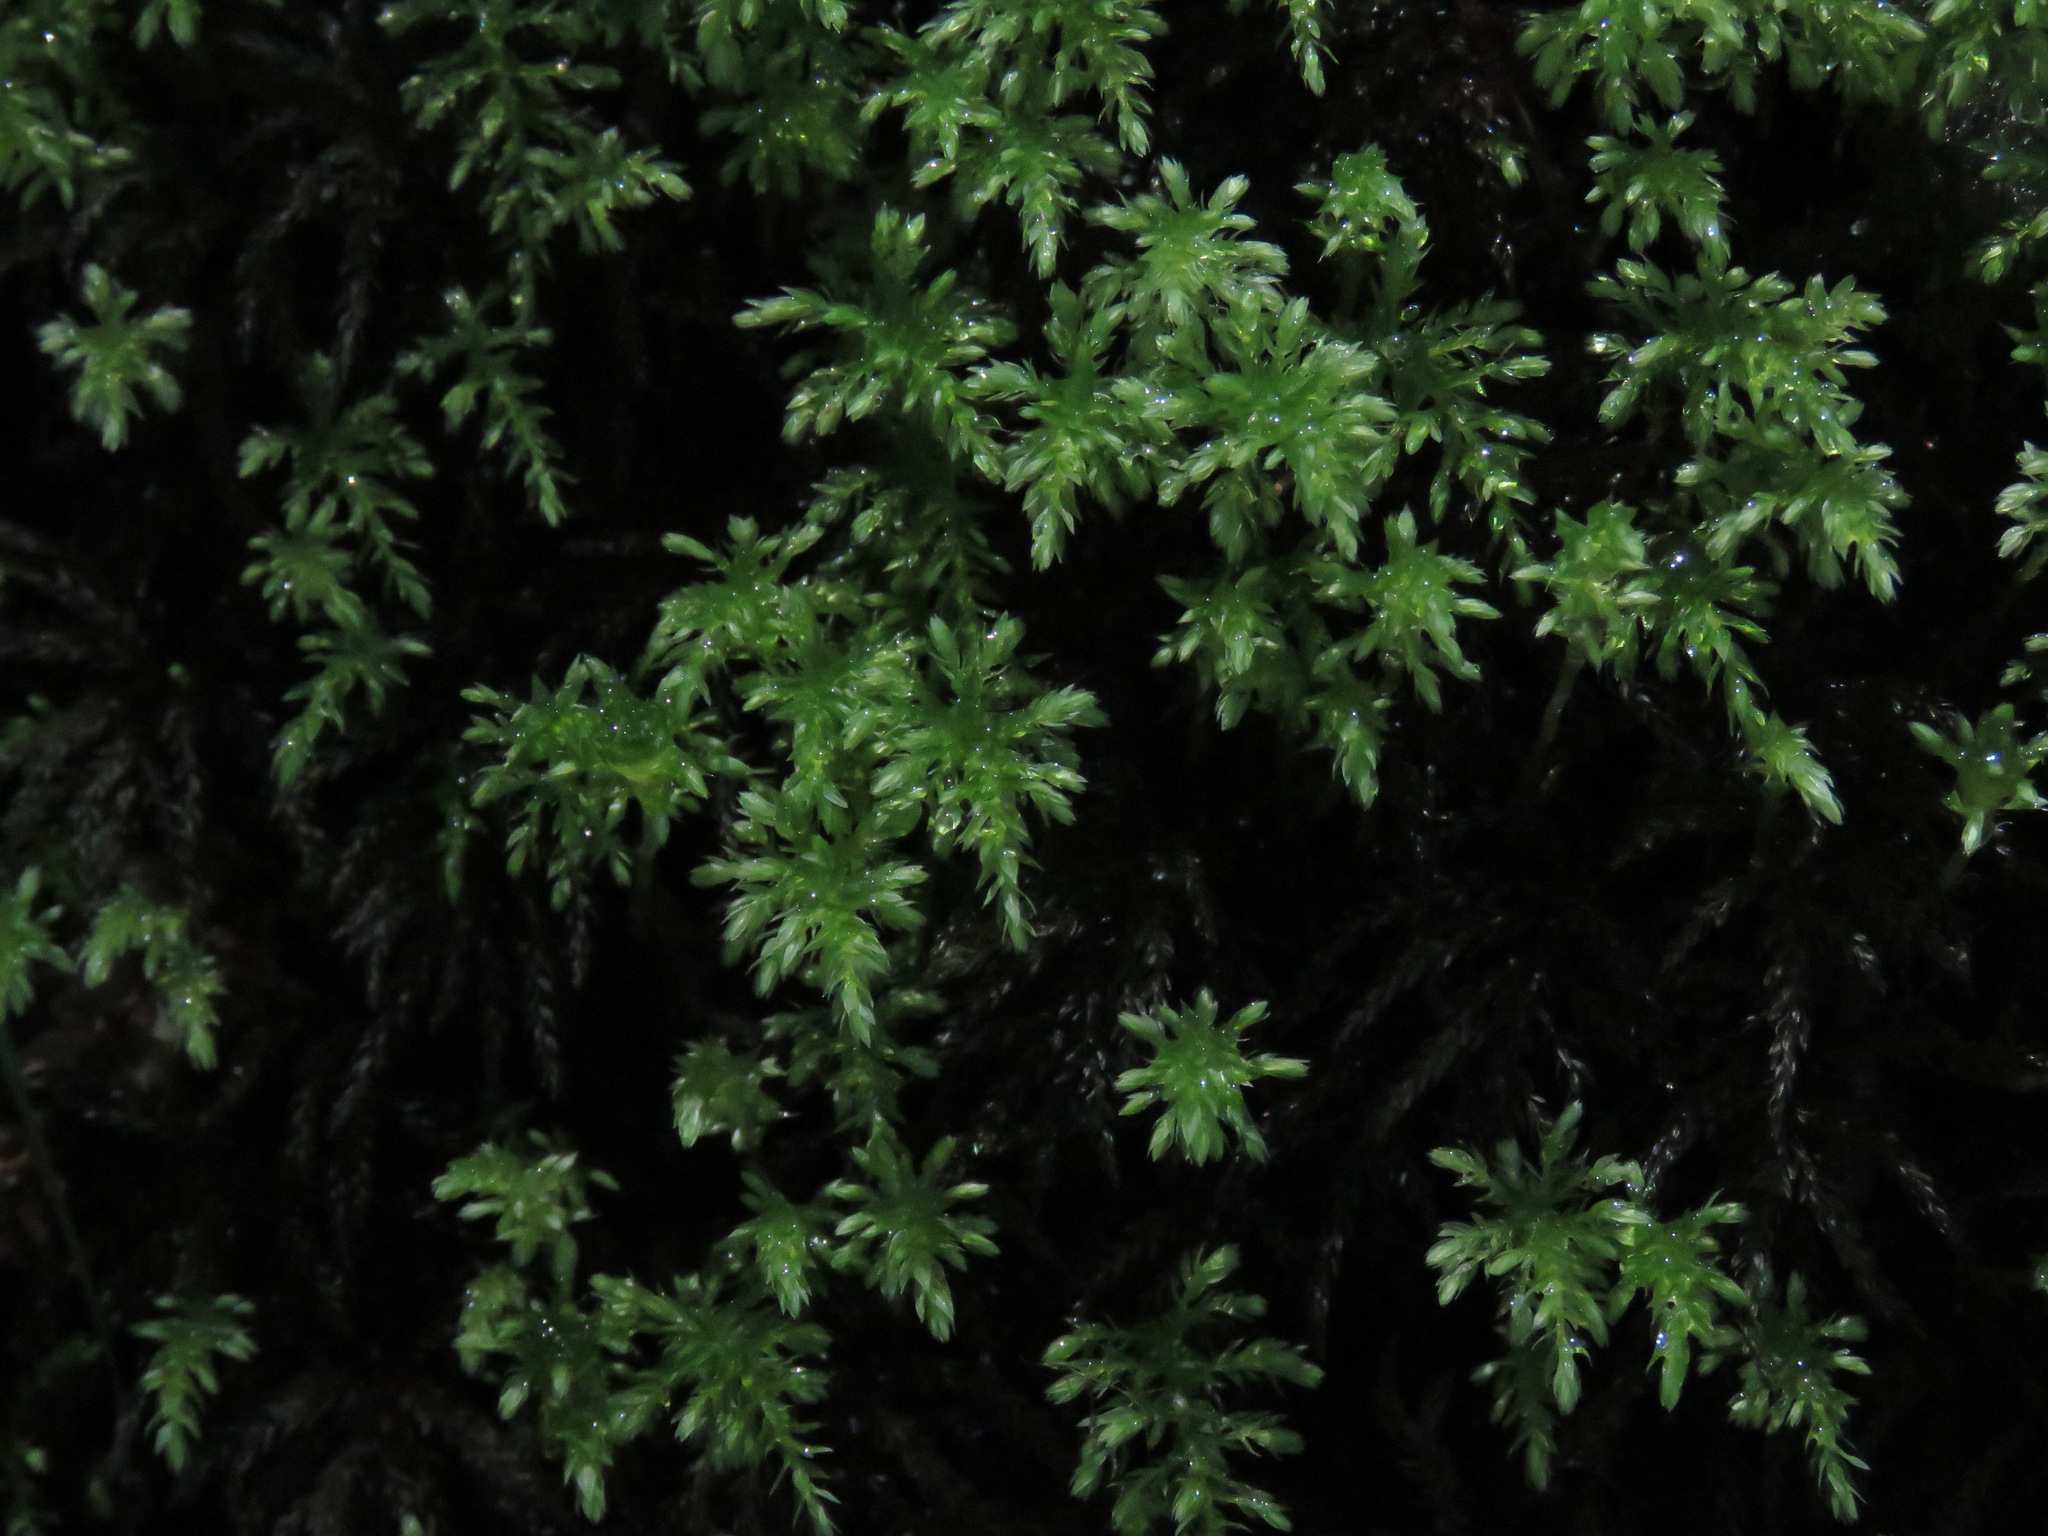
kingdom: Plantae
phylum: Bryophyta
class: Bryopsida
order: Bryales
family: Mniaceae
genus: Leucolepis
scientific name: Leucolepis acanthoneura
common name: Leucolepis umbrella moss
